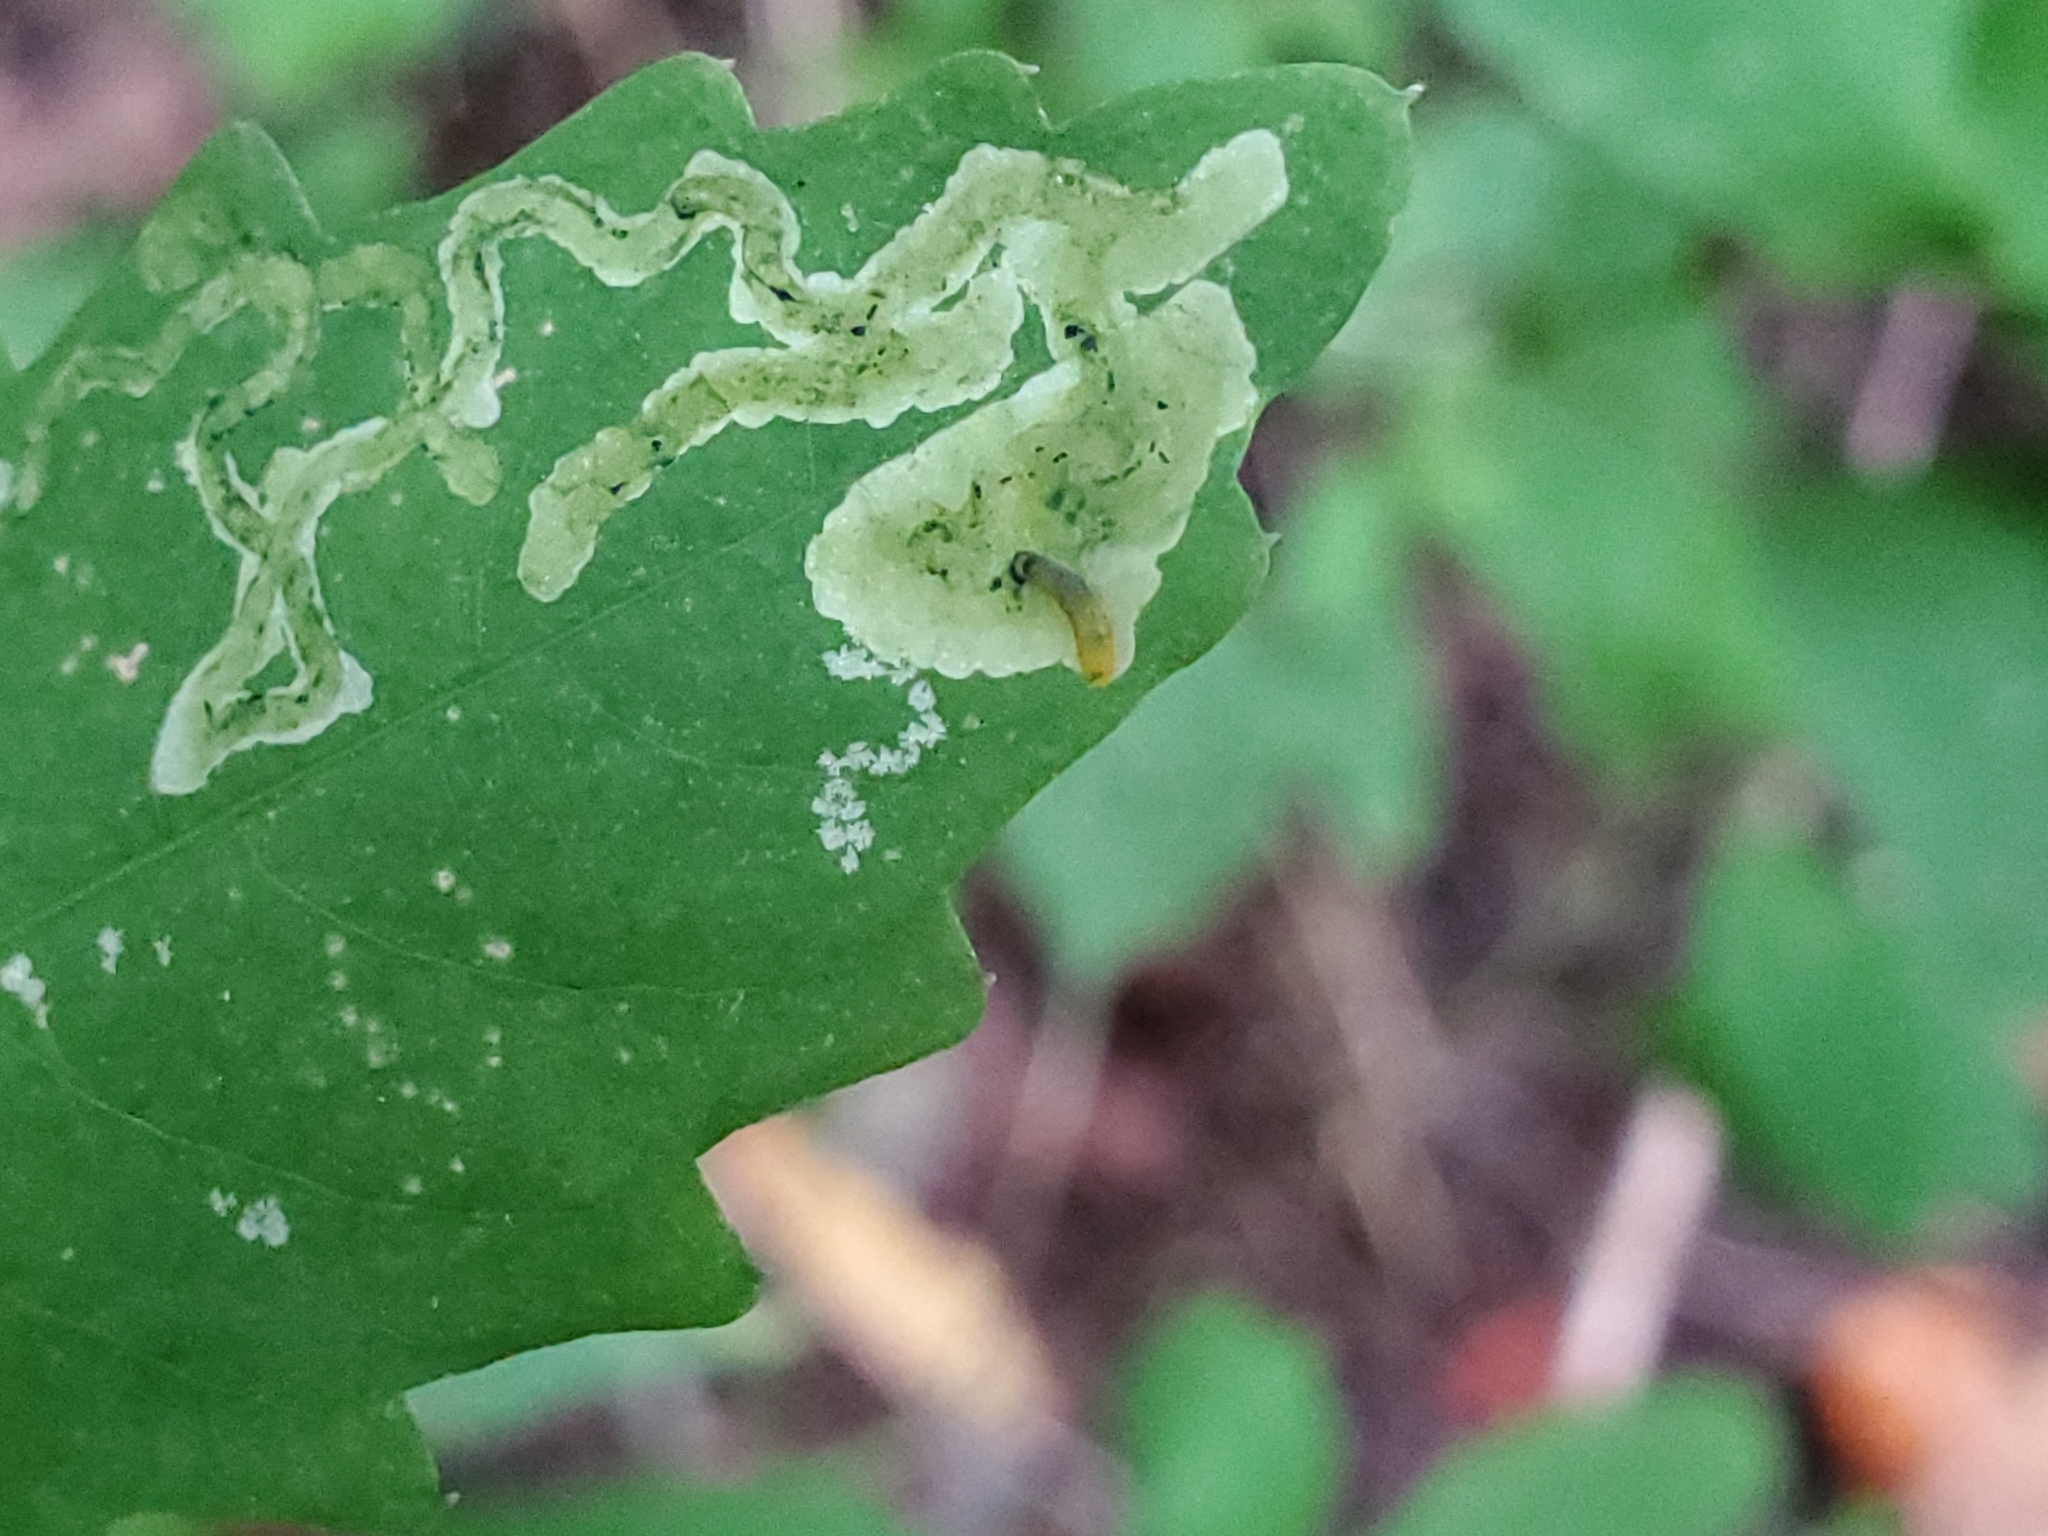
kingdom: Animalia
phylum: Arthropoda
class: Insecta
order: Diptera
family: Agromyzidae
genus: Phytoliriomyza
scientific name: Phytoliriomyza melampyga
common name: Jewelweed leaf-miner fly
